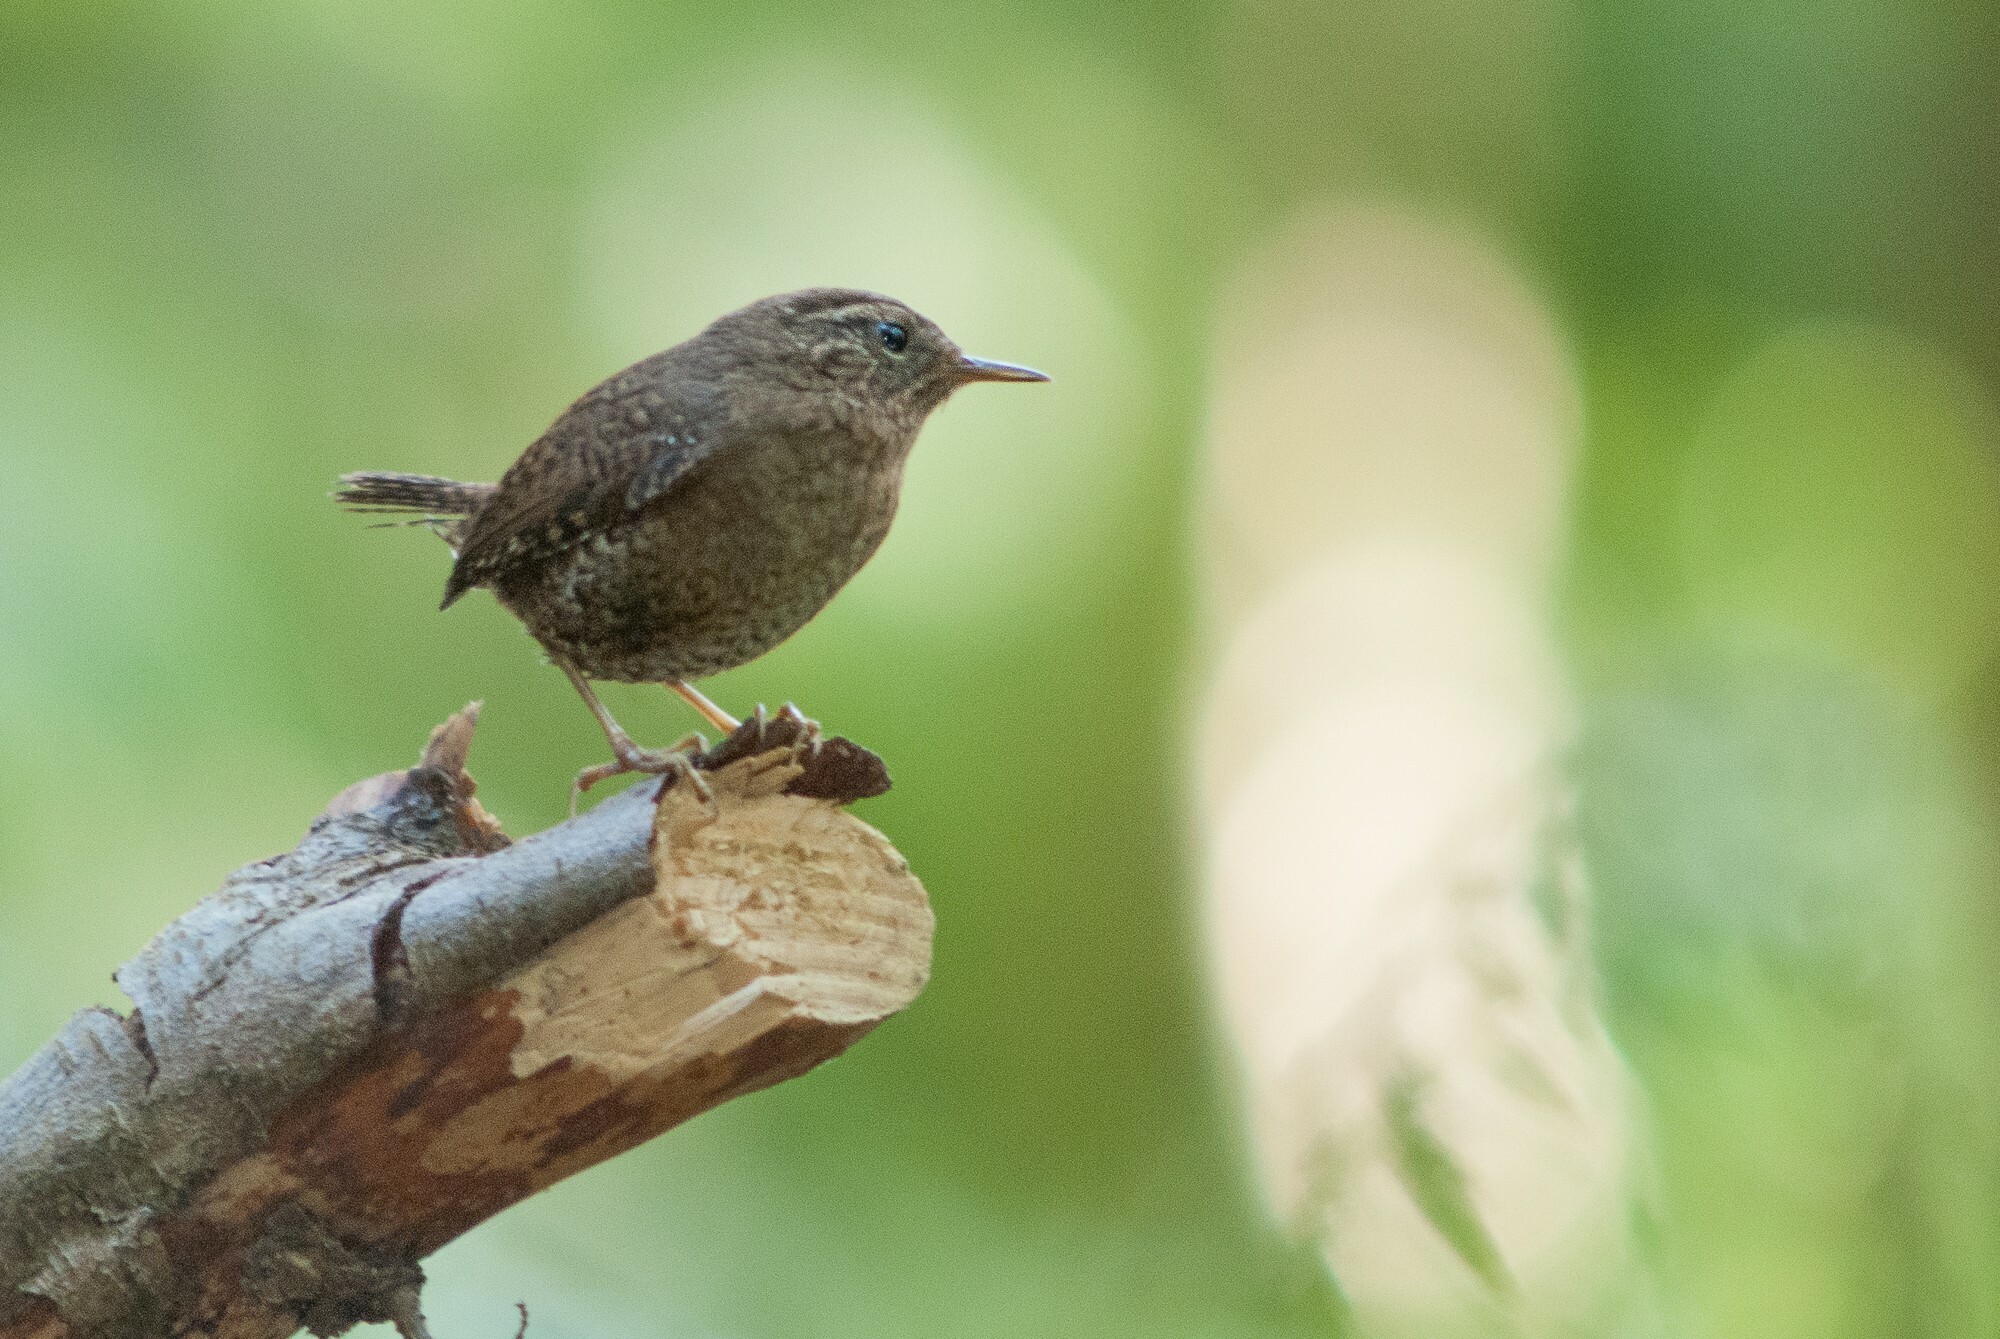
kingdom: Animalia
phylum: Chordata
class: Aves
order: Passeriformes
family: Troglodytidae
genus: Troglodytes
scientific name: Troglodytes pacificus
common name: Pacific wren
